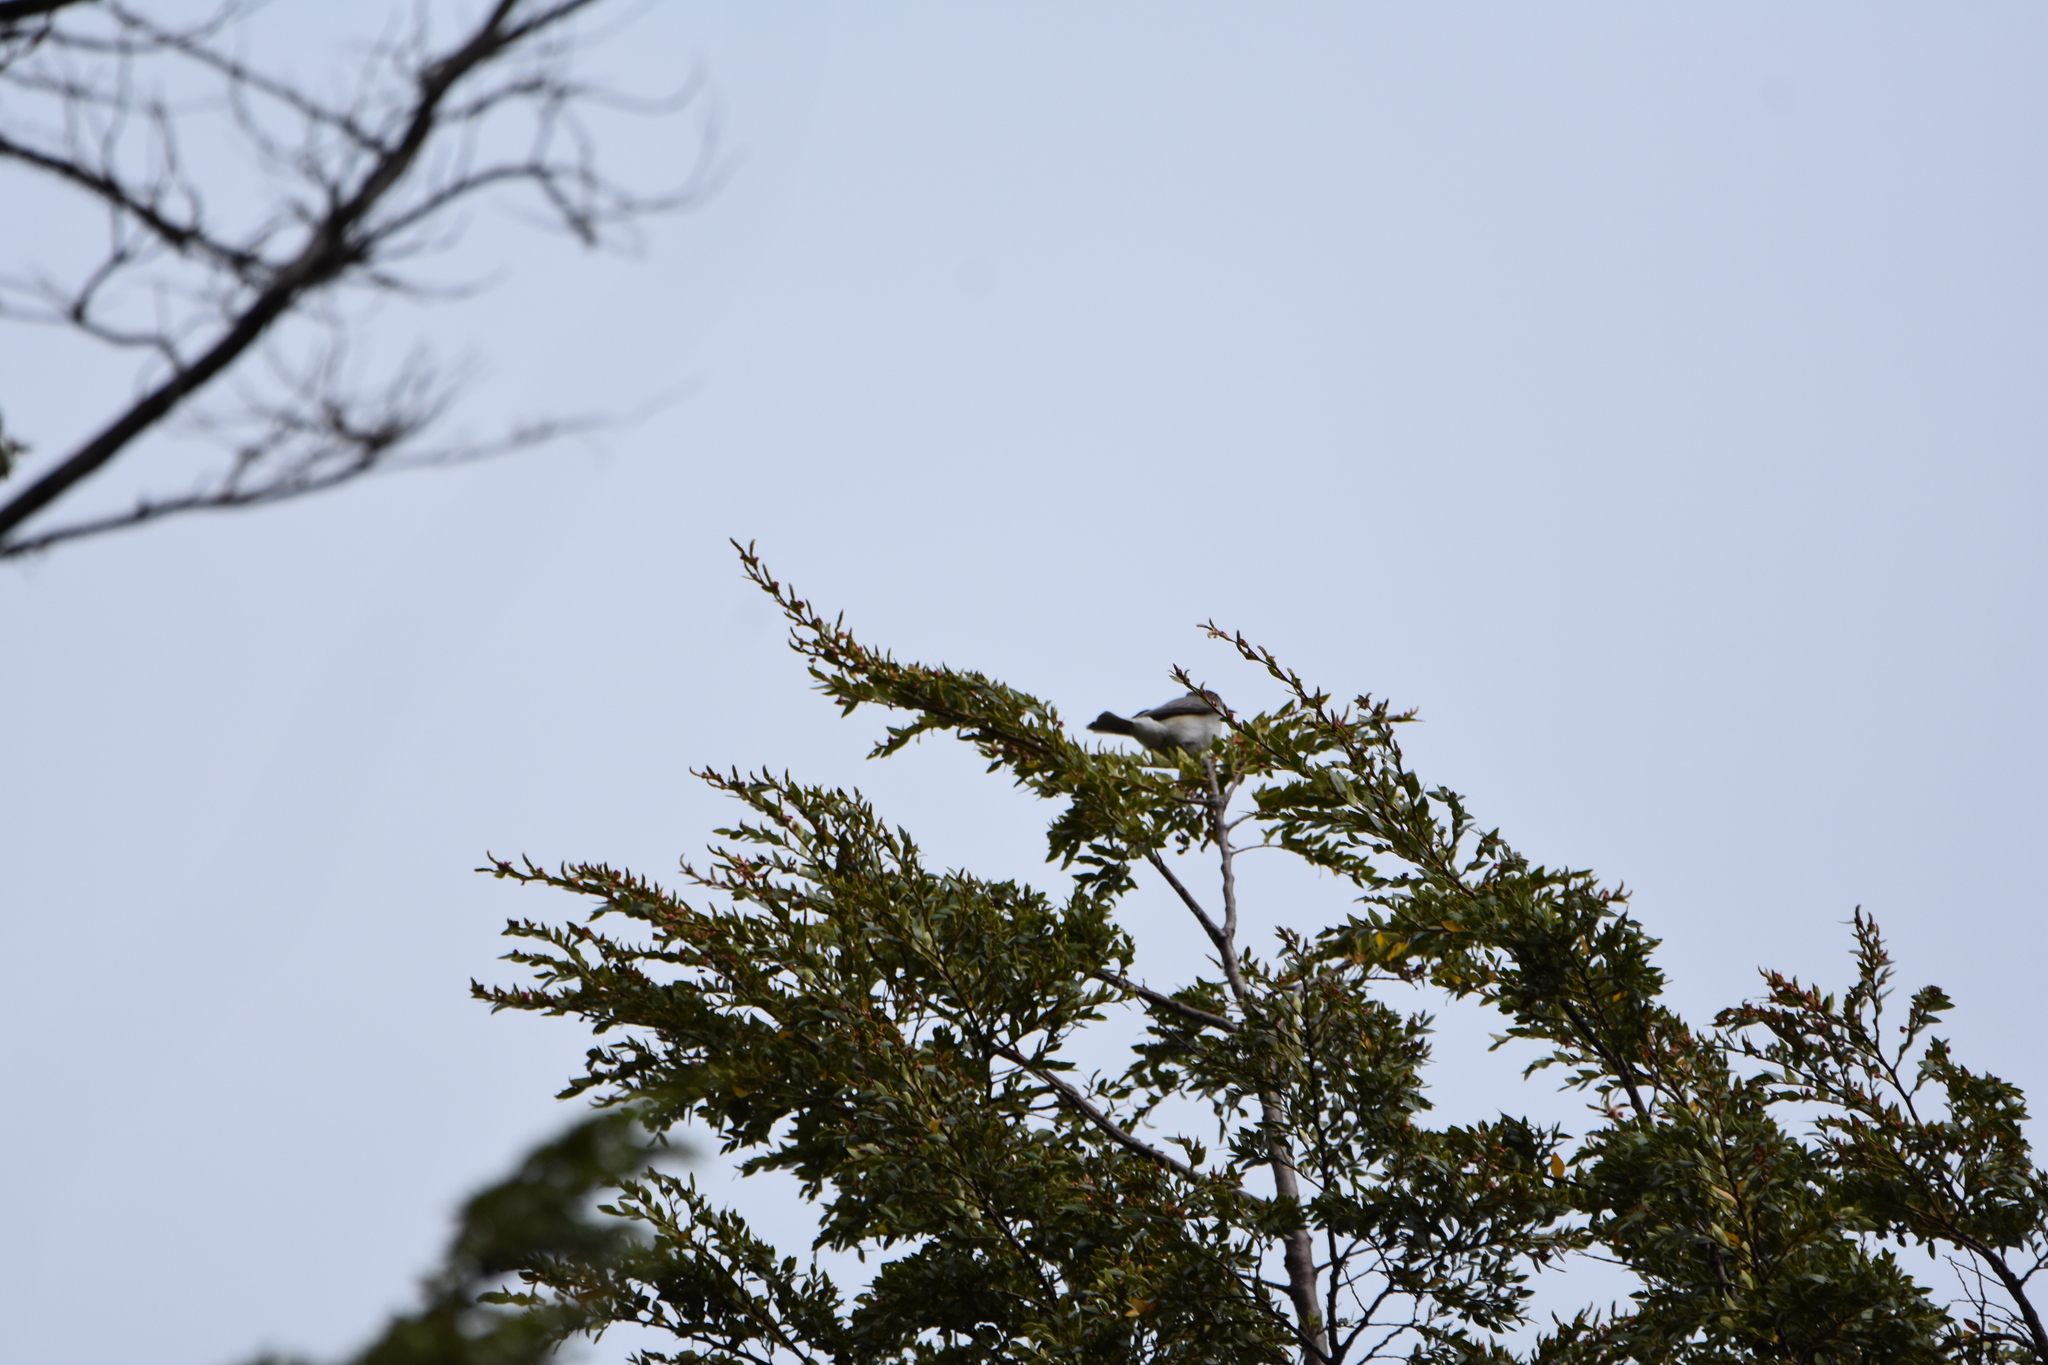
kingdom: Animalia
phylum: Chordata
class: Aves
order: Passeriformes
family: Tyrannidae
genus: Xolmis
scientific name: Xolmis pyrope
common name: Fire-eyed diucon
